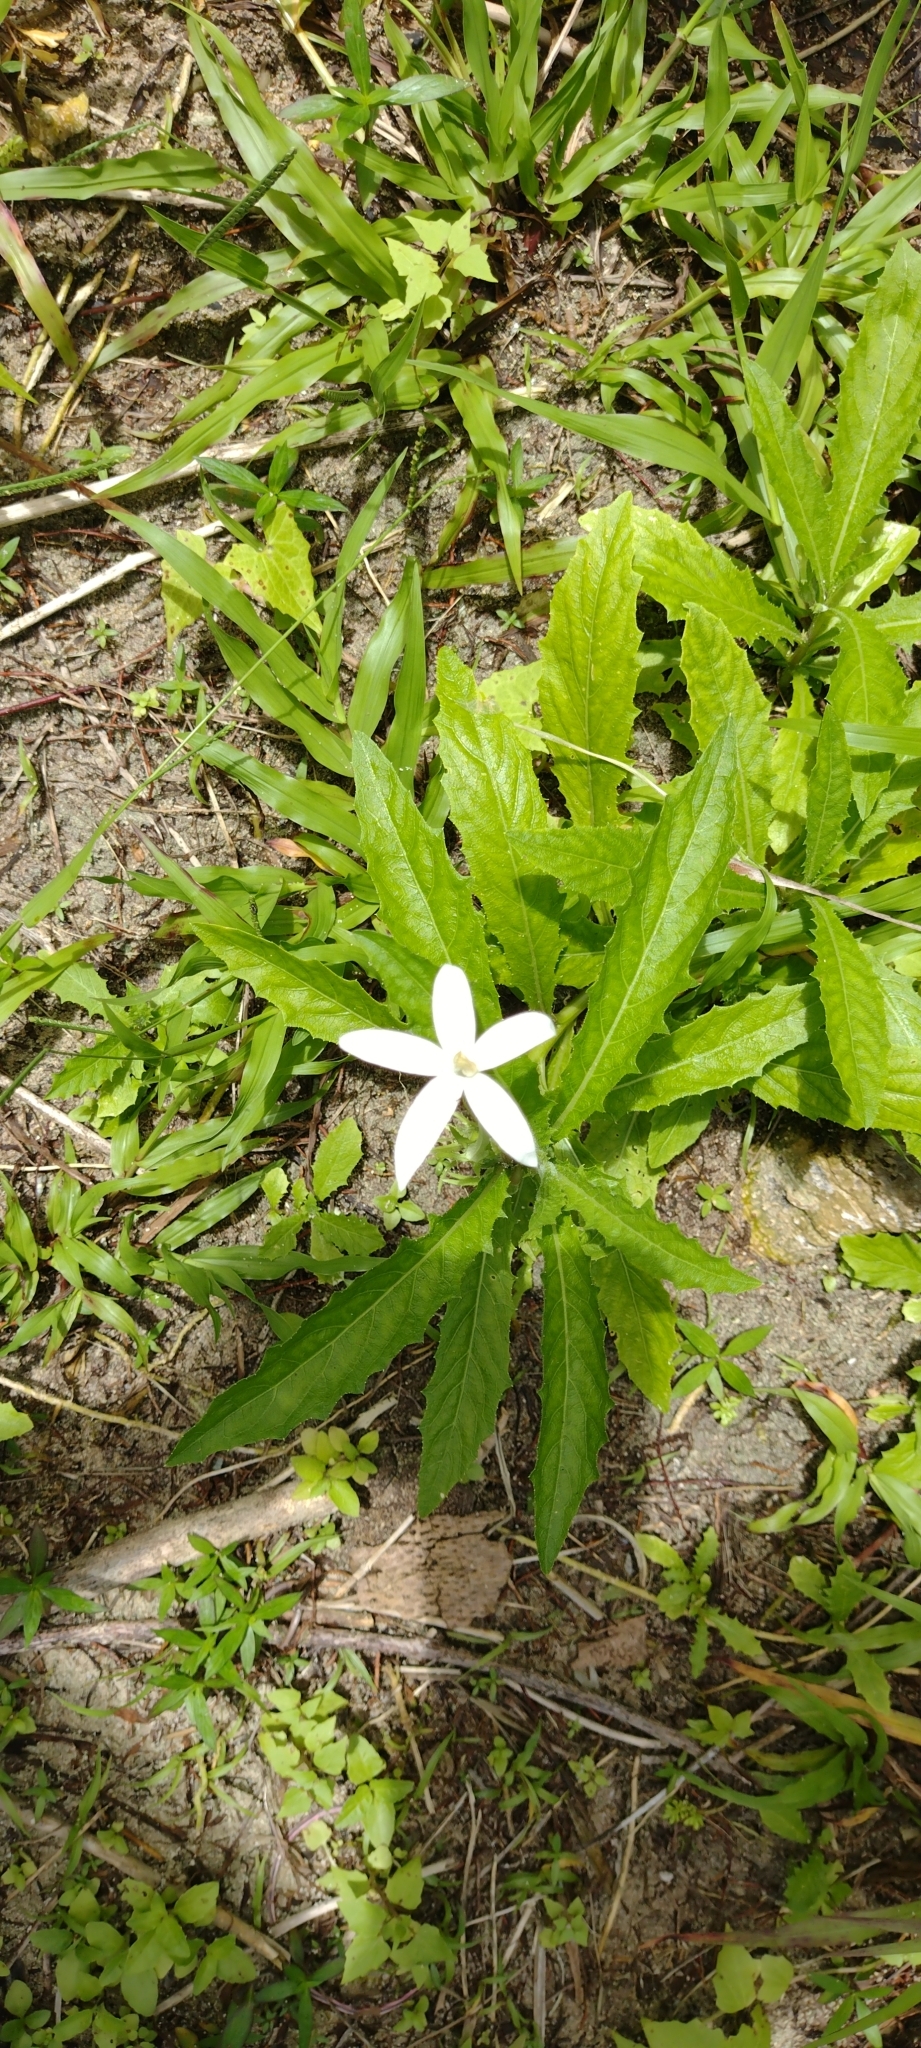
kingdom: Plantae
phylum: Tracheophyta
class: Magnoliopsida
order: Asterales
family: Campanulaceae
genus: Hippobroma
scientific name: Hippobroma longiflora
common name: Madamfate
